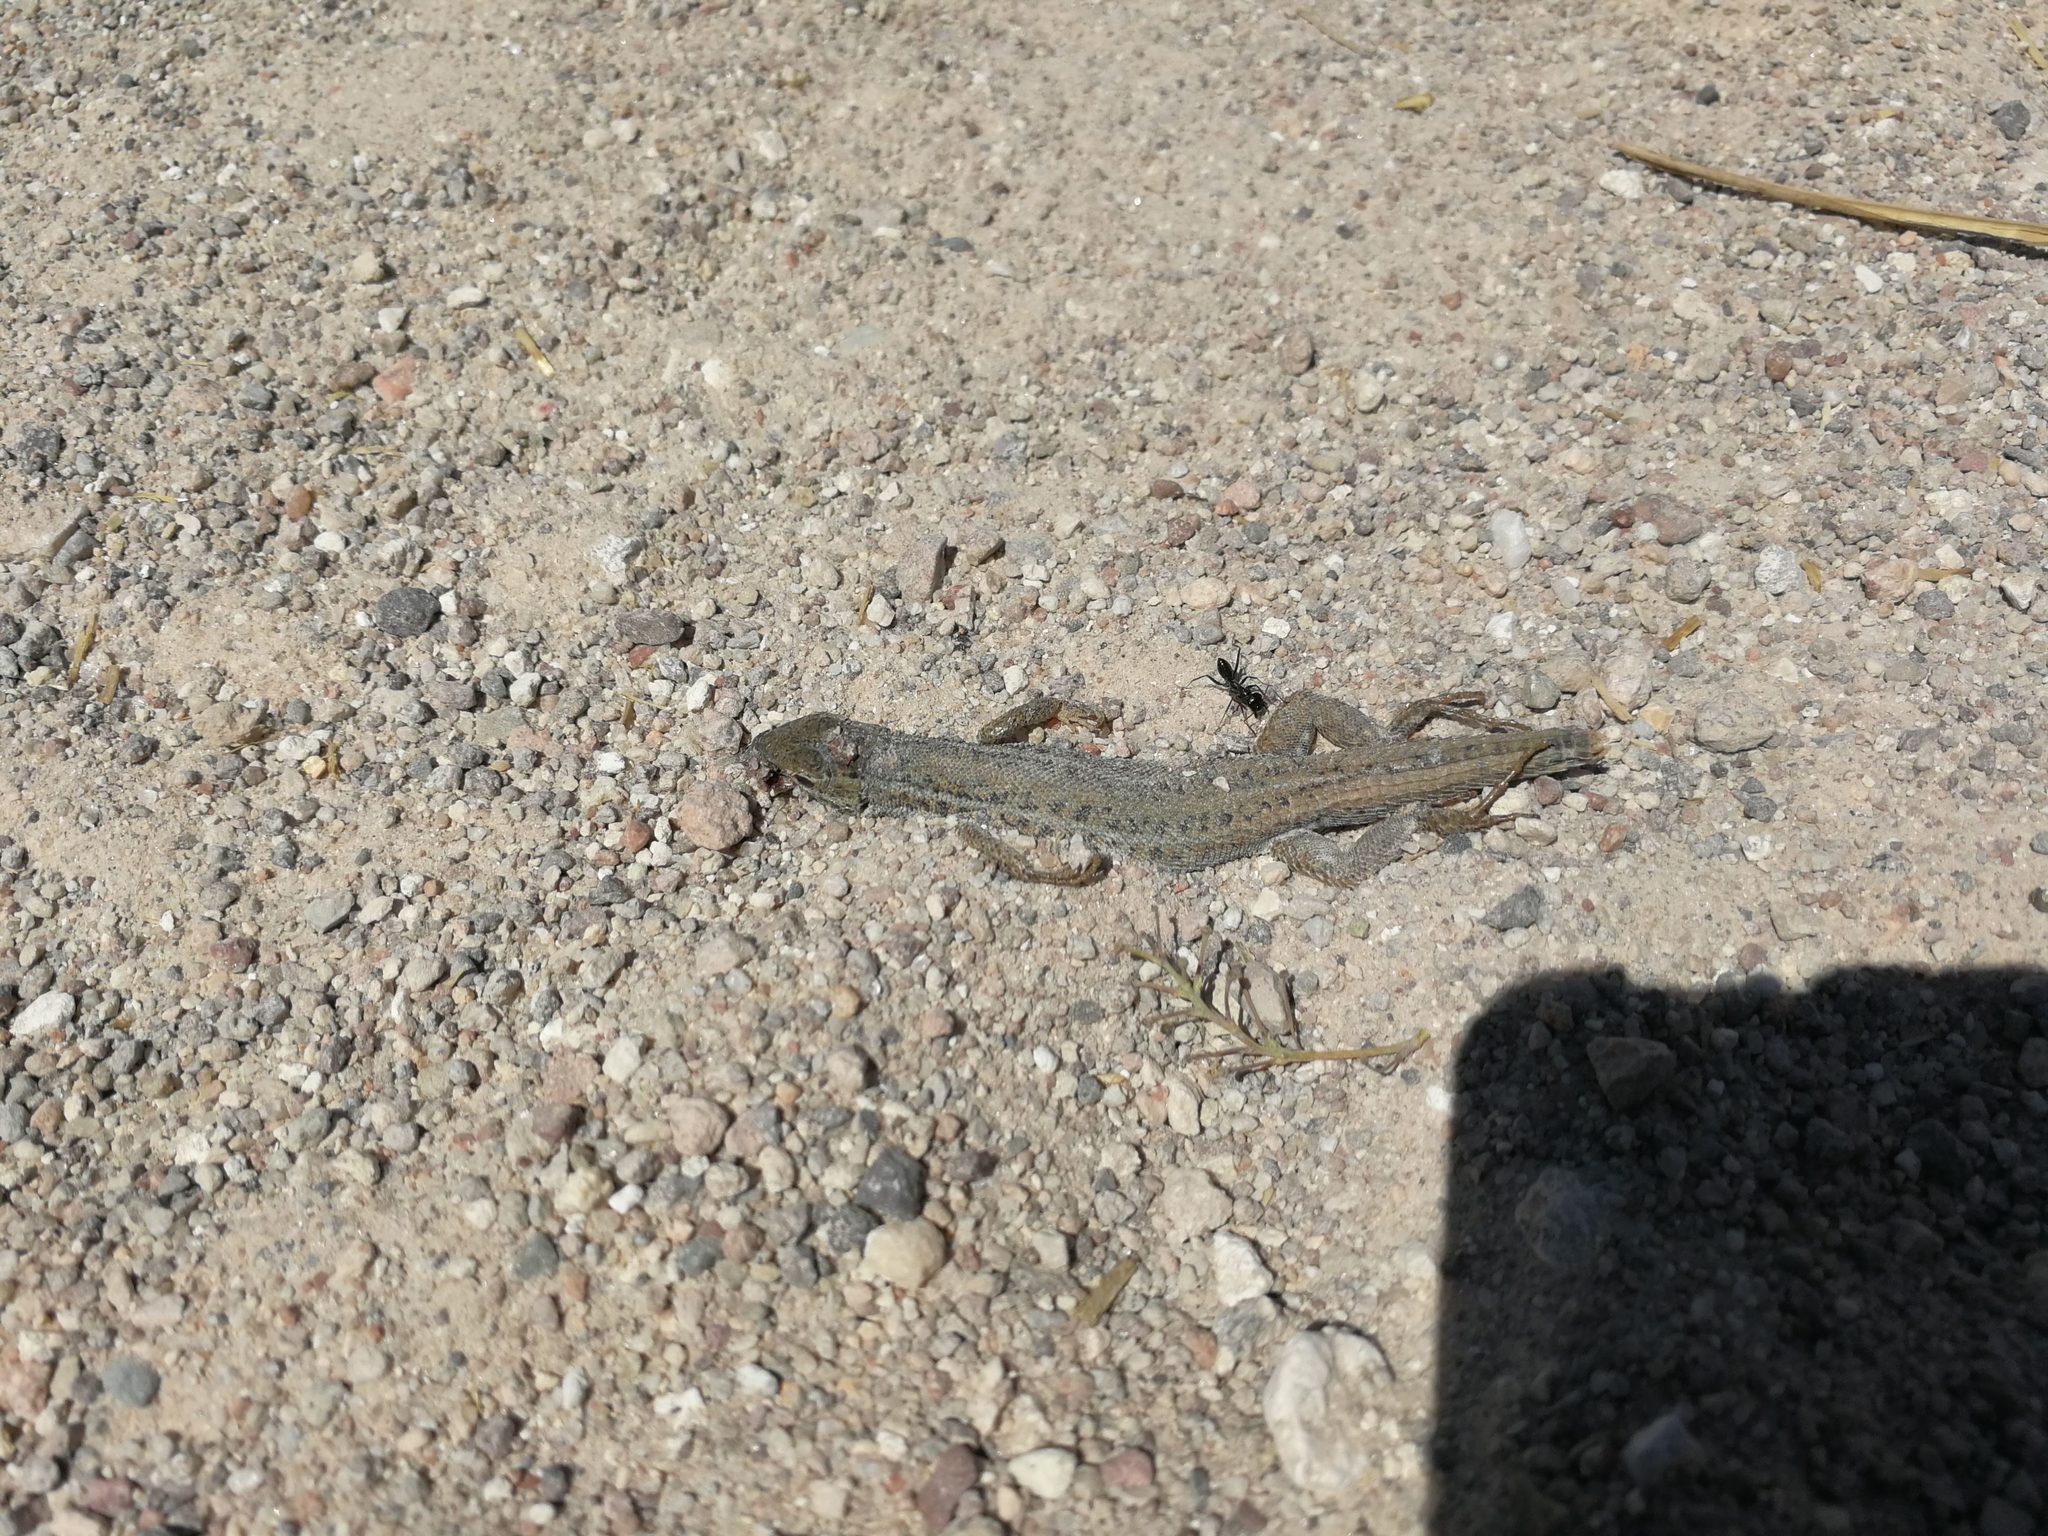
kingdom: Animalia
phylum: Chordata
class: Squamata
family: Lacertidae
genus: Ophisops
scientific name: Ophisops elegans
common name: Snake-eyed lizard
